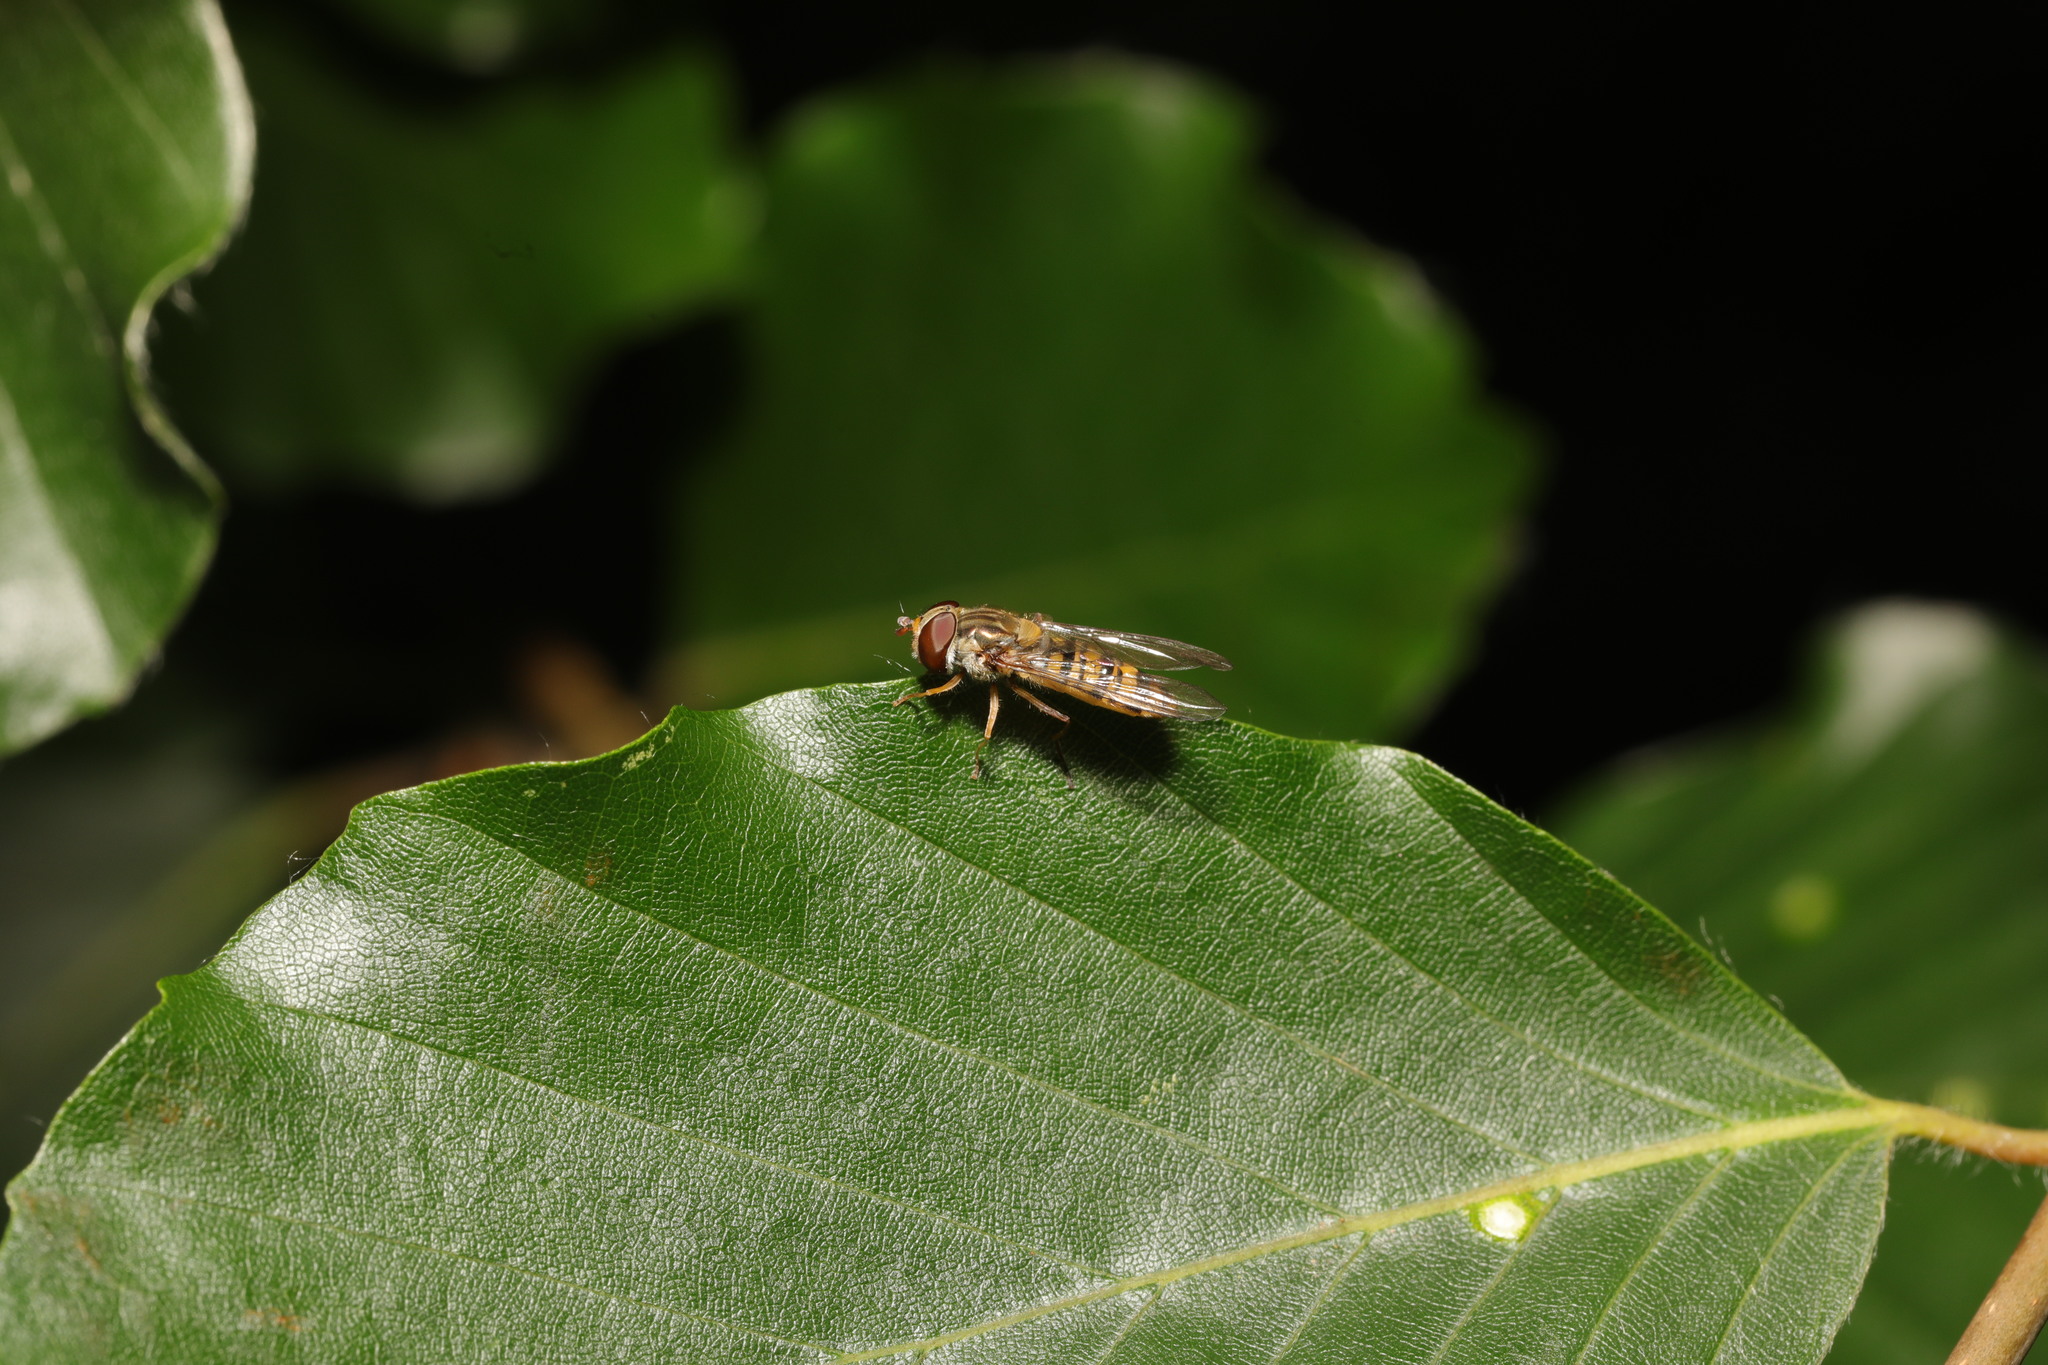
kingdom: Animalia
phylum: Arthropoda
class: Insecta
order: Diptera
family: Syrphidae
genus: Episyrphus
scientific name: Episyrphus balteatus
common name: Marmalade hoverfly
